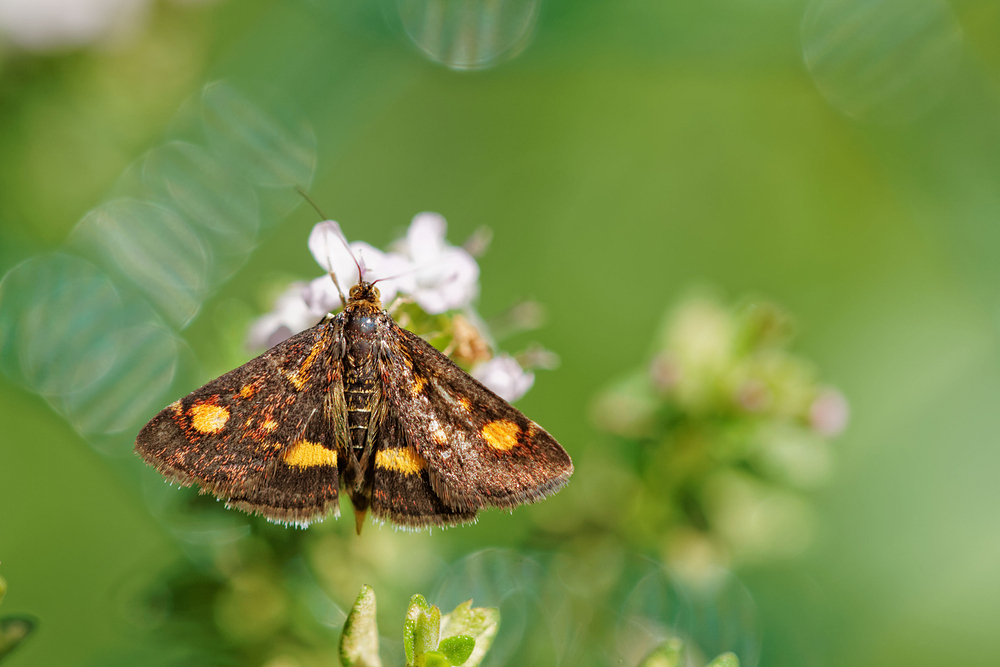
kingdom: Animalia
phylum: Arthropoda
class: Insecta
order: Lepidoptera
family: Crambidae
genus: Pyrausta
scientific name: Pyrausta aurata
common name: Small purple & gold
